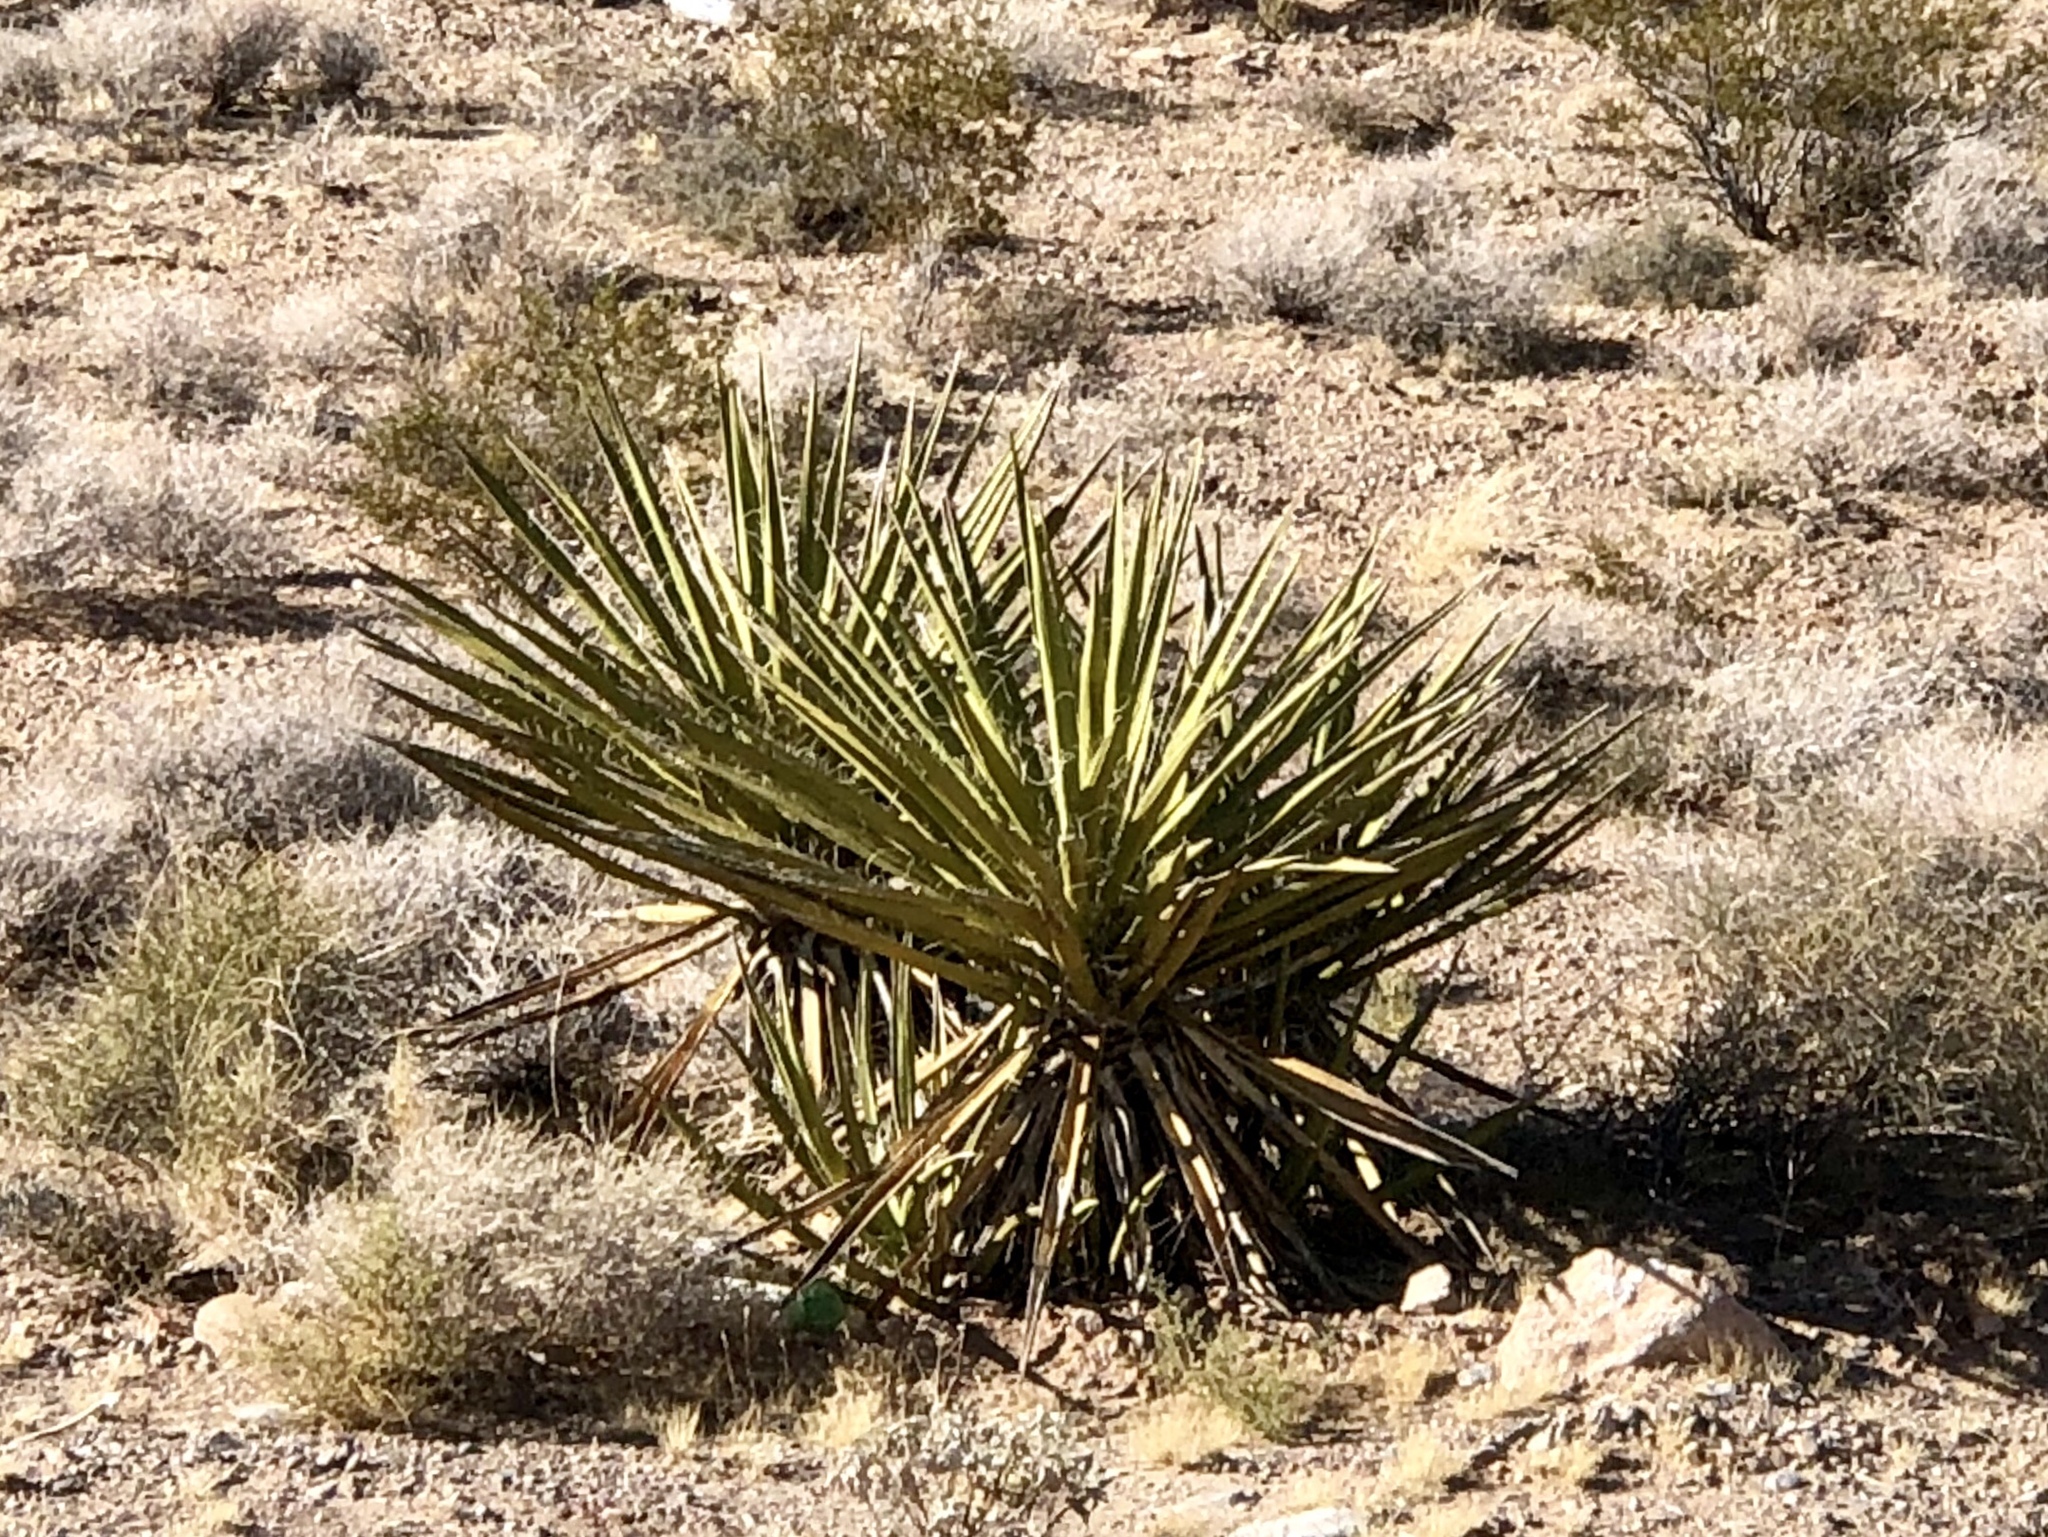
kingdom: Plantae
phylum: Tracheophyta
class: Liliopsida
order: Asparagales
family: Asparagaceae
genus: Yucca
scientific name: Yucca schidigera
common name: Mojave yucca
